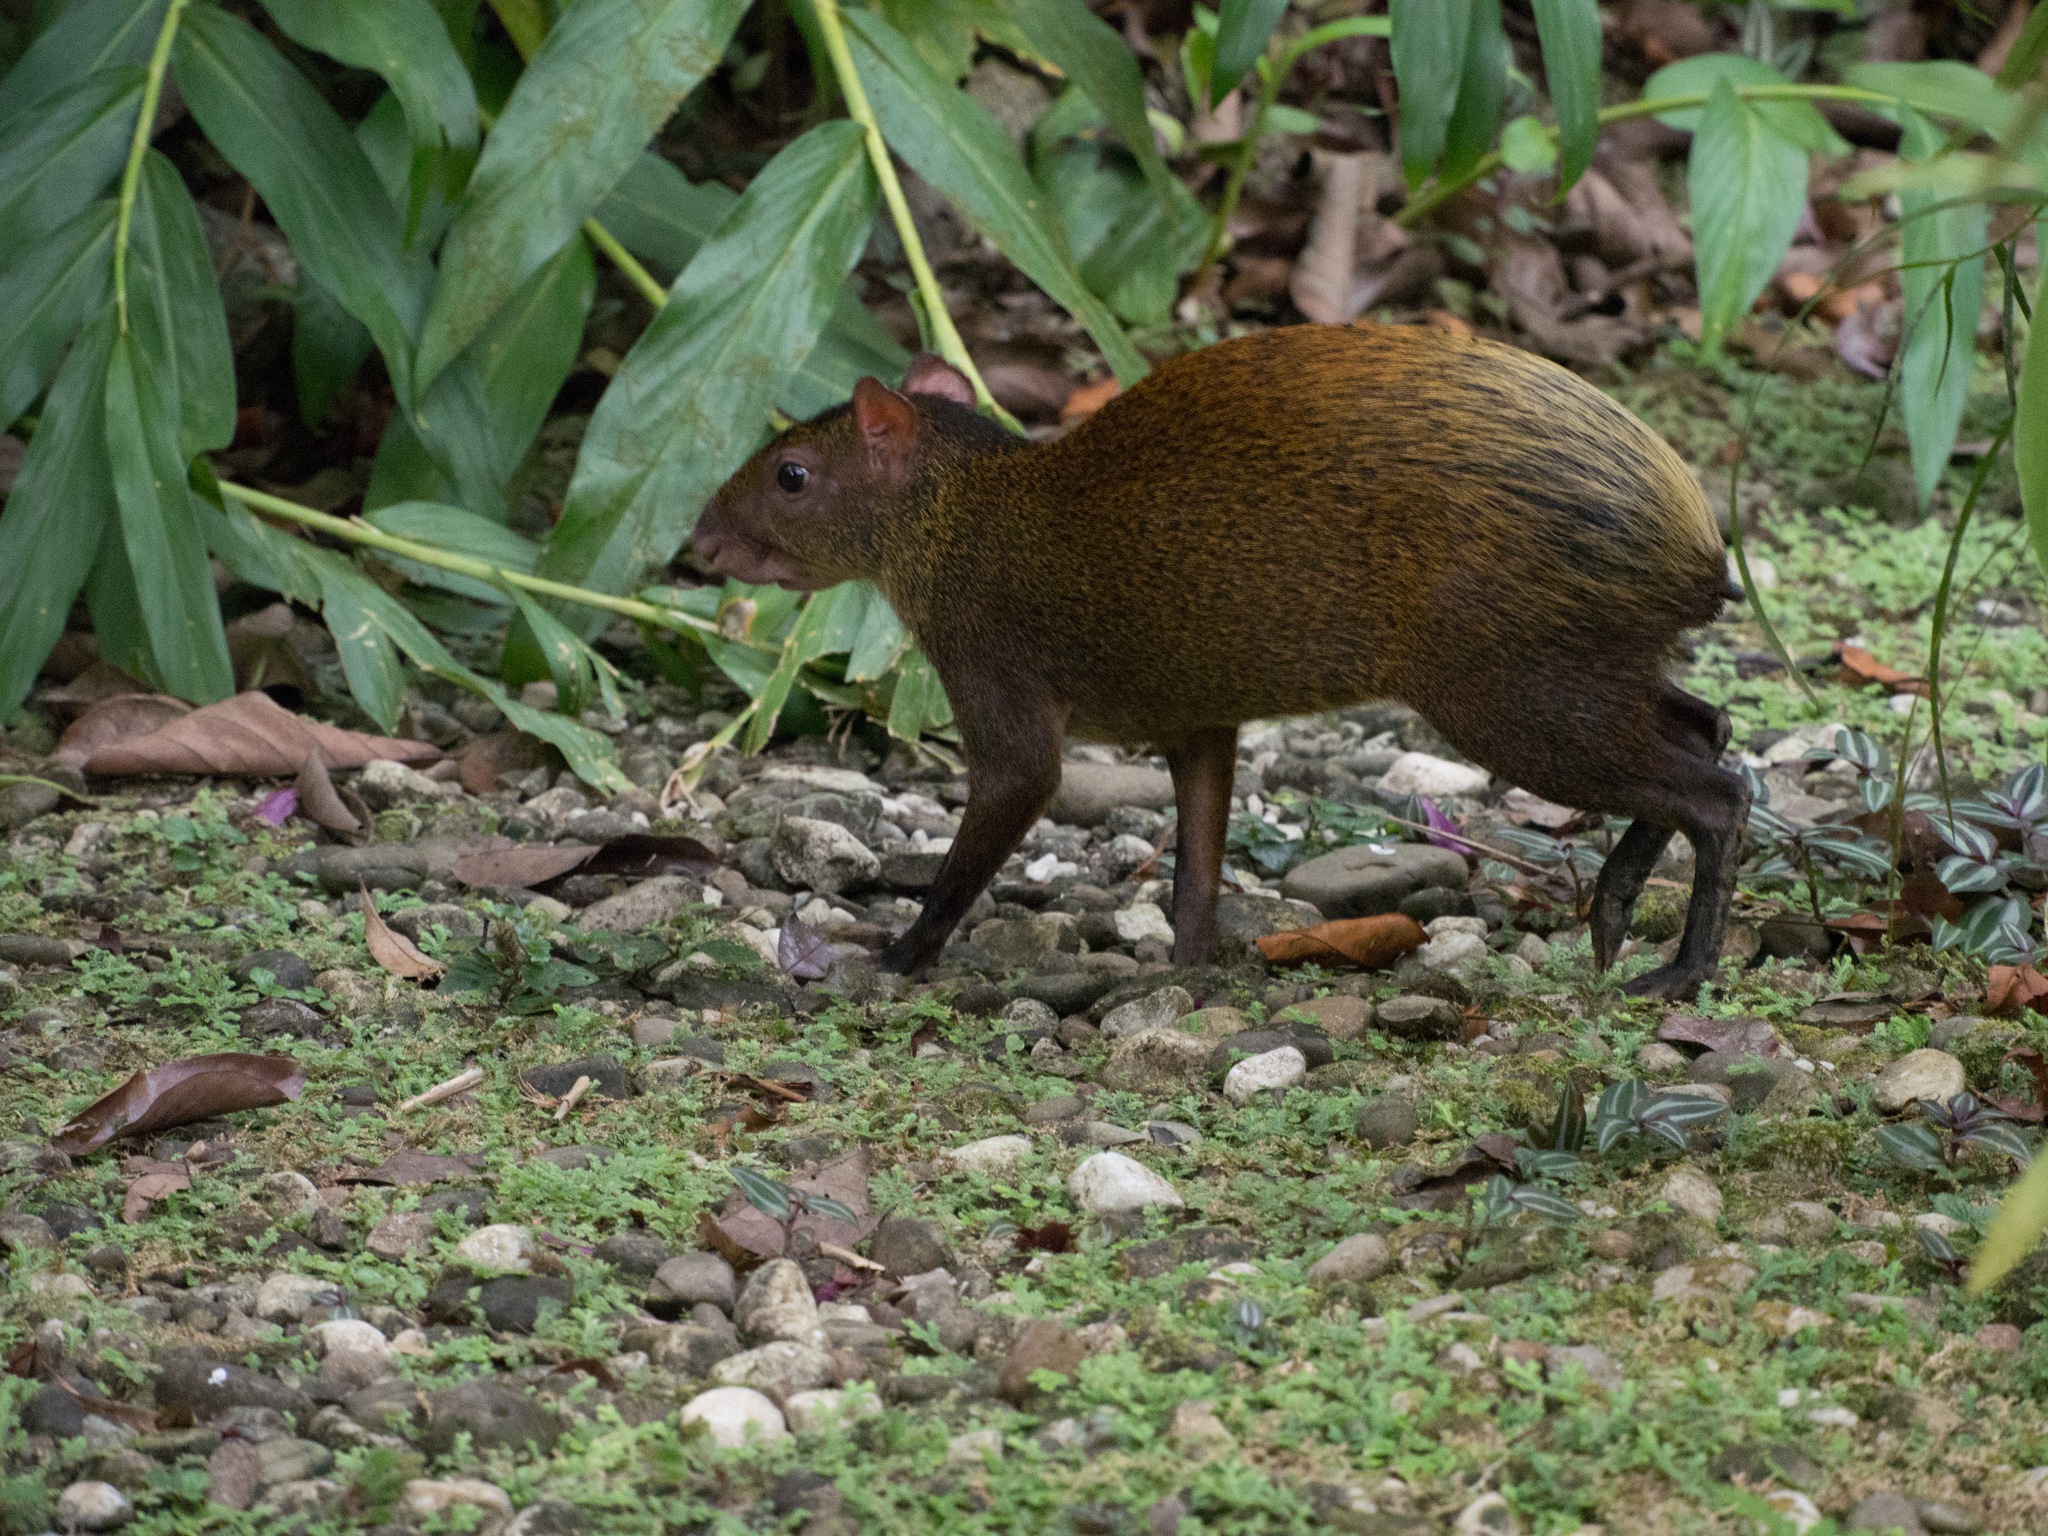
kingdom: Animalia
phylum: Chordata
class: Mammalia
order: Rodentia
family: Dasyproctidae
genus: Dasyprocta
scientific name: Dasyprocta punctata
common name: Central american agouti
